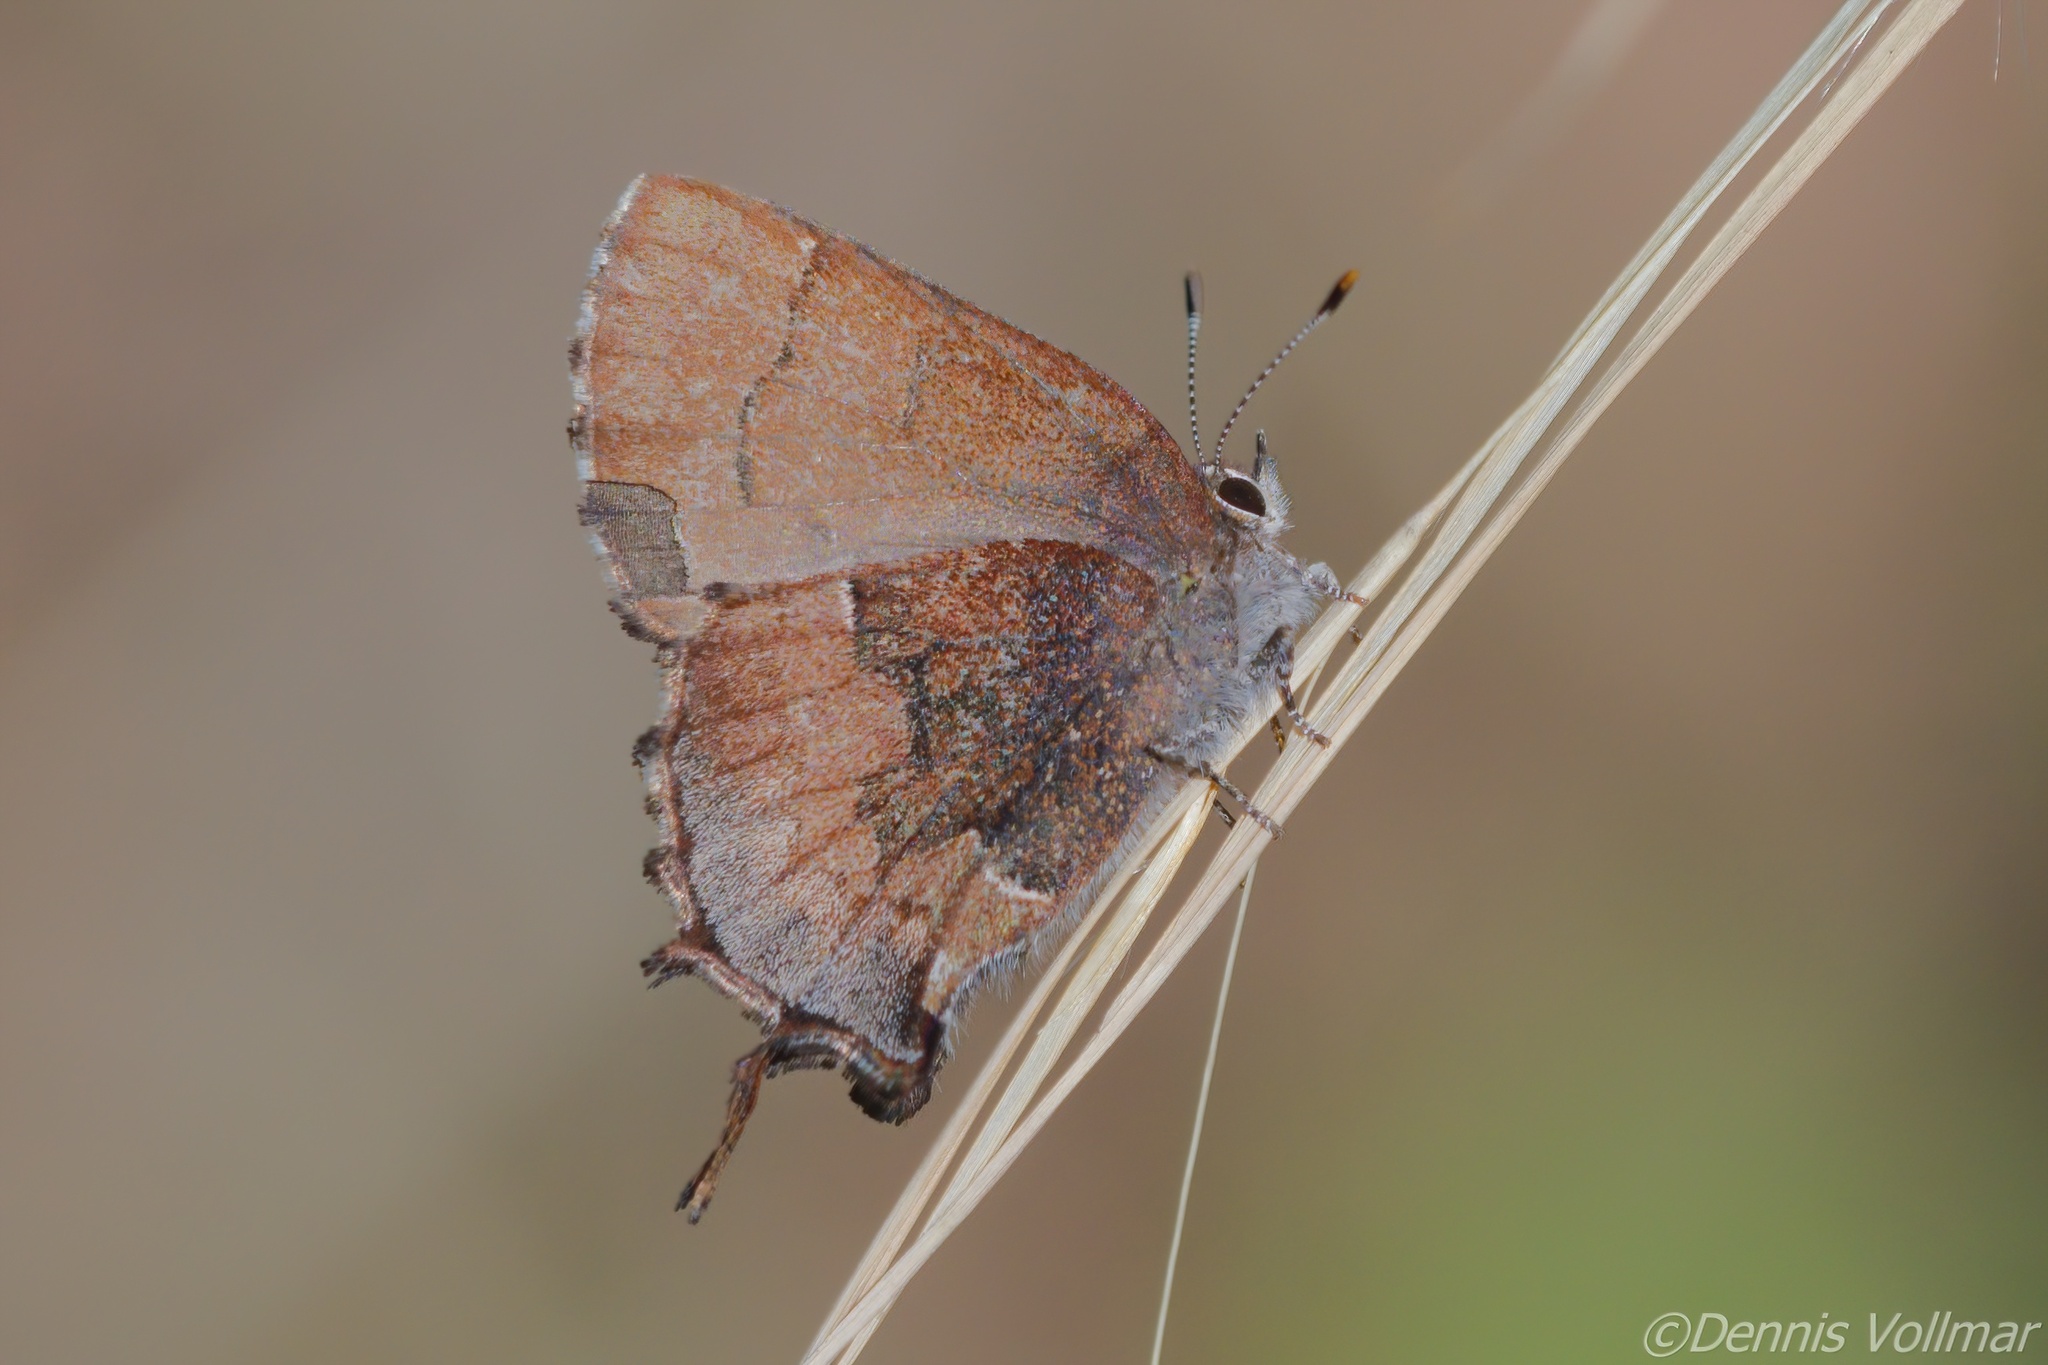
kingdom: Animalia
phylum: Arthropoda
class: Insecta
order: Lepidoptera
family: Lycaenidae
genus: Incisalia
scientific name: Incisalia henrici
